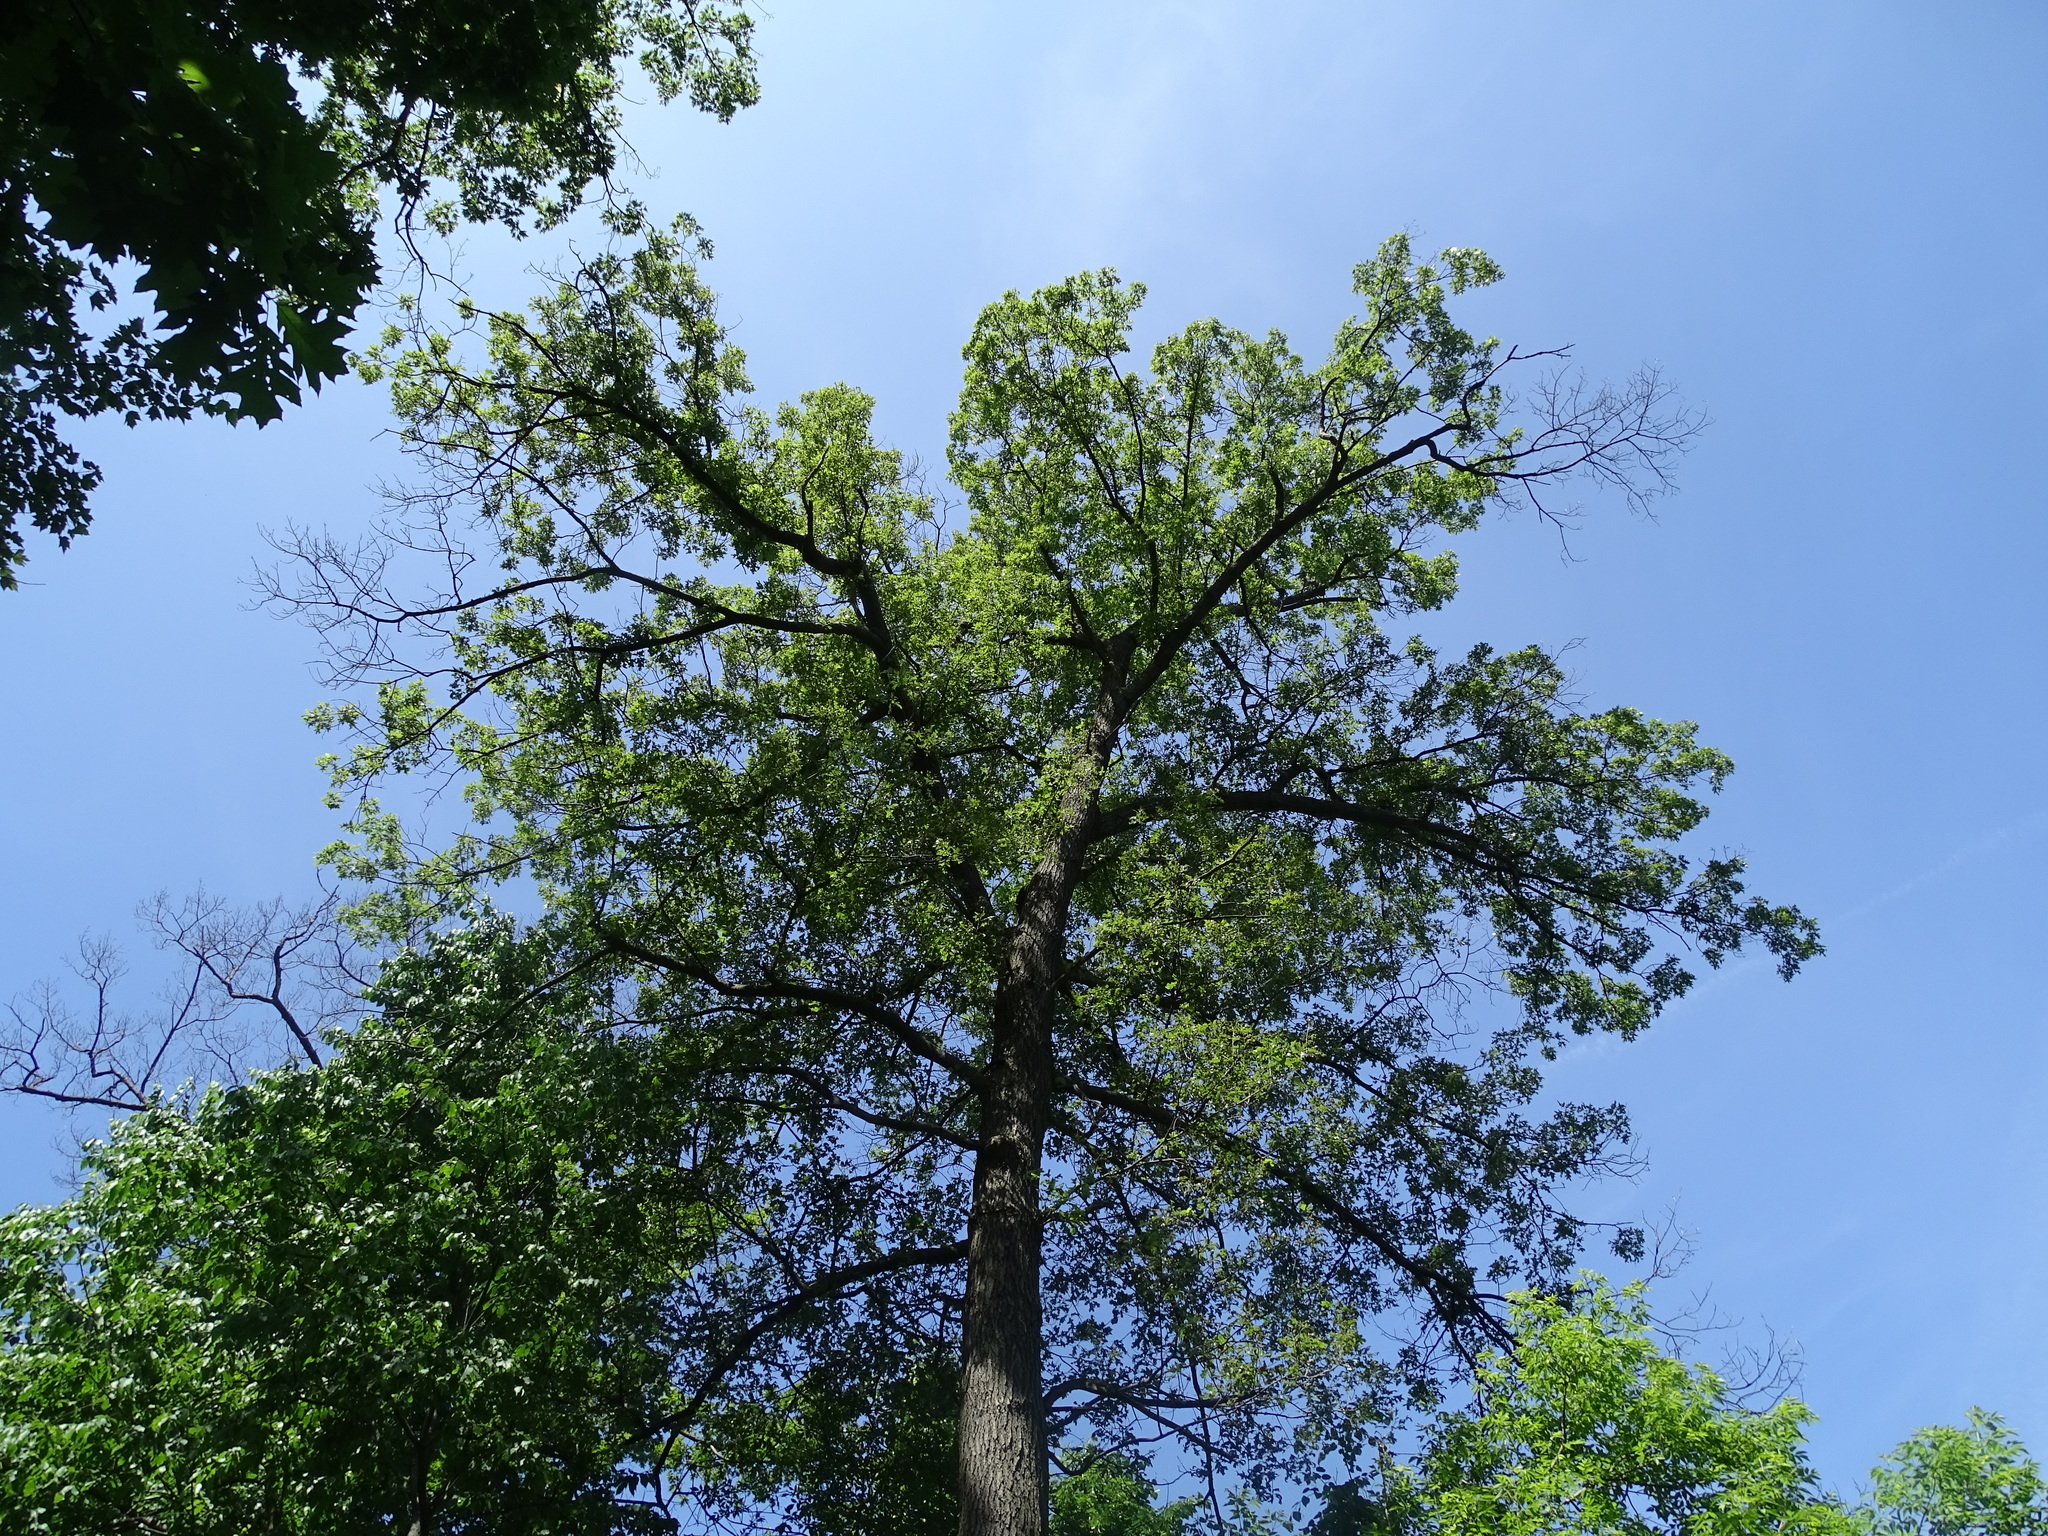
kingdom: Plantae
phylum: Tracheophyta
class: Magnoliopsida
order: Fagales
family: Fagaceae
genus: Quercus
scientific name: Quercus velutina
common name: Black oak
